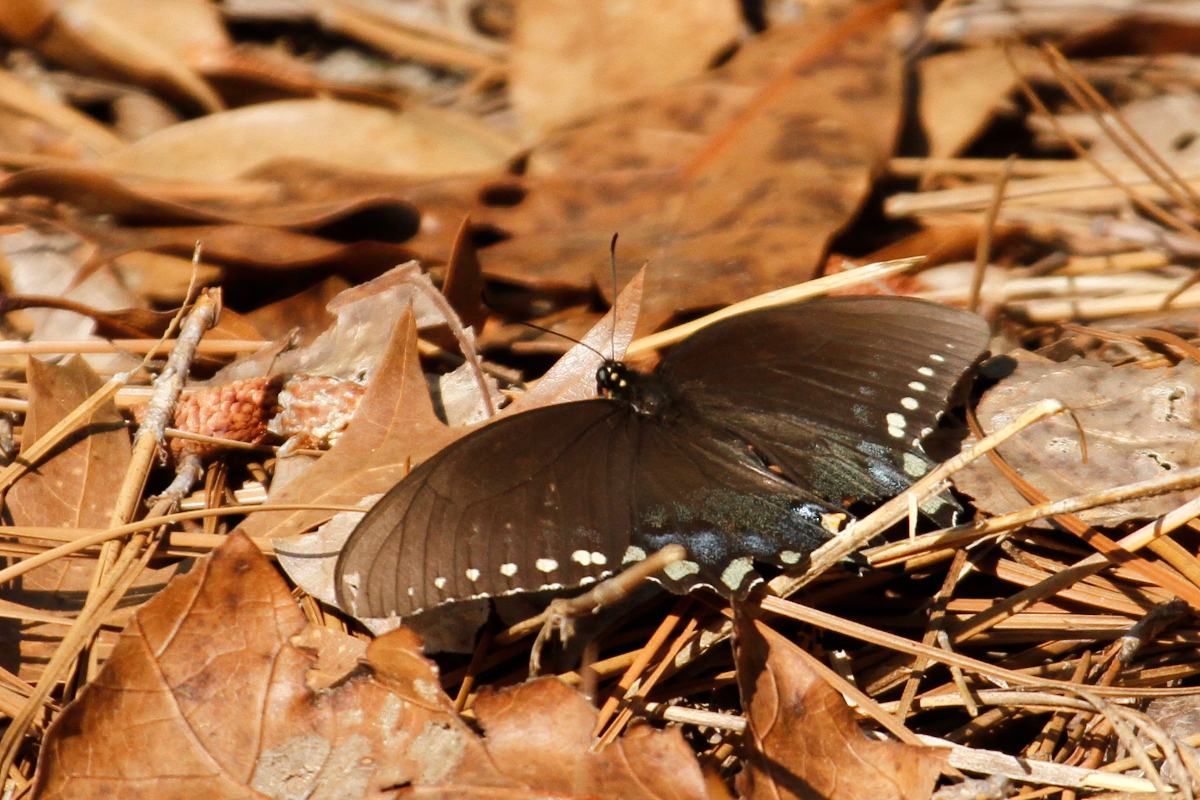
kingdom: Animalia
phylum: Arthropoda
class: Insecta
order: Lepidoptera
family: Papilionidae
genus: Papilio
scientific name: Papilio troilus
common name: Spicebush swallowtail
